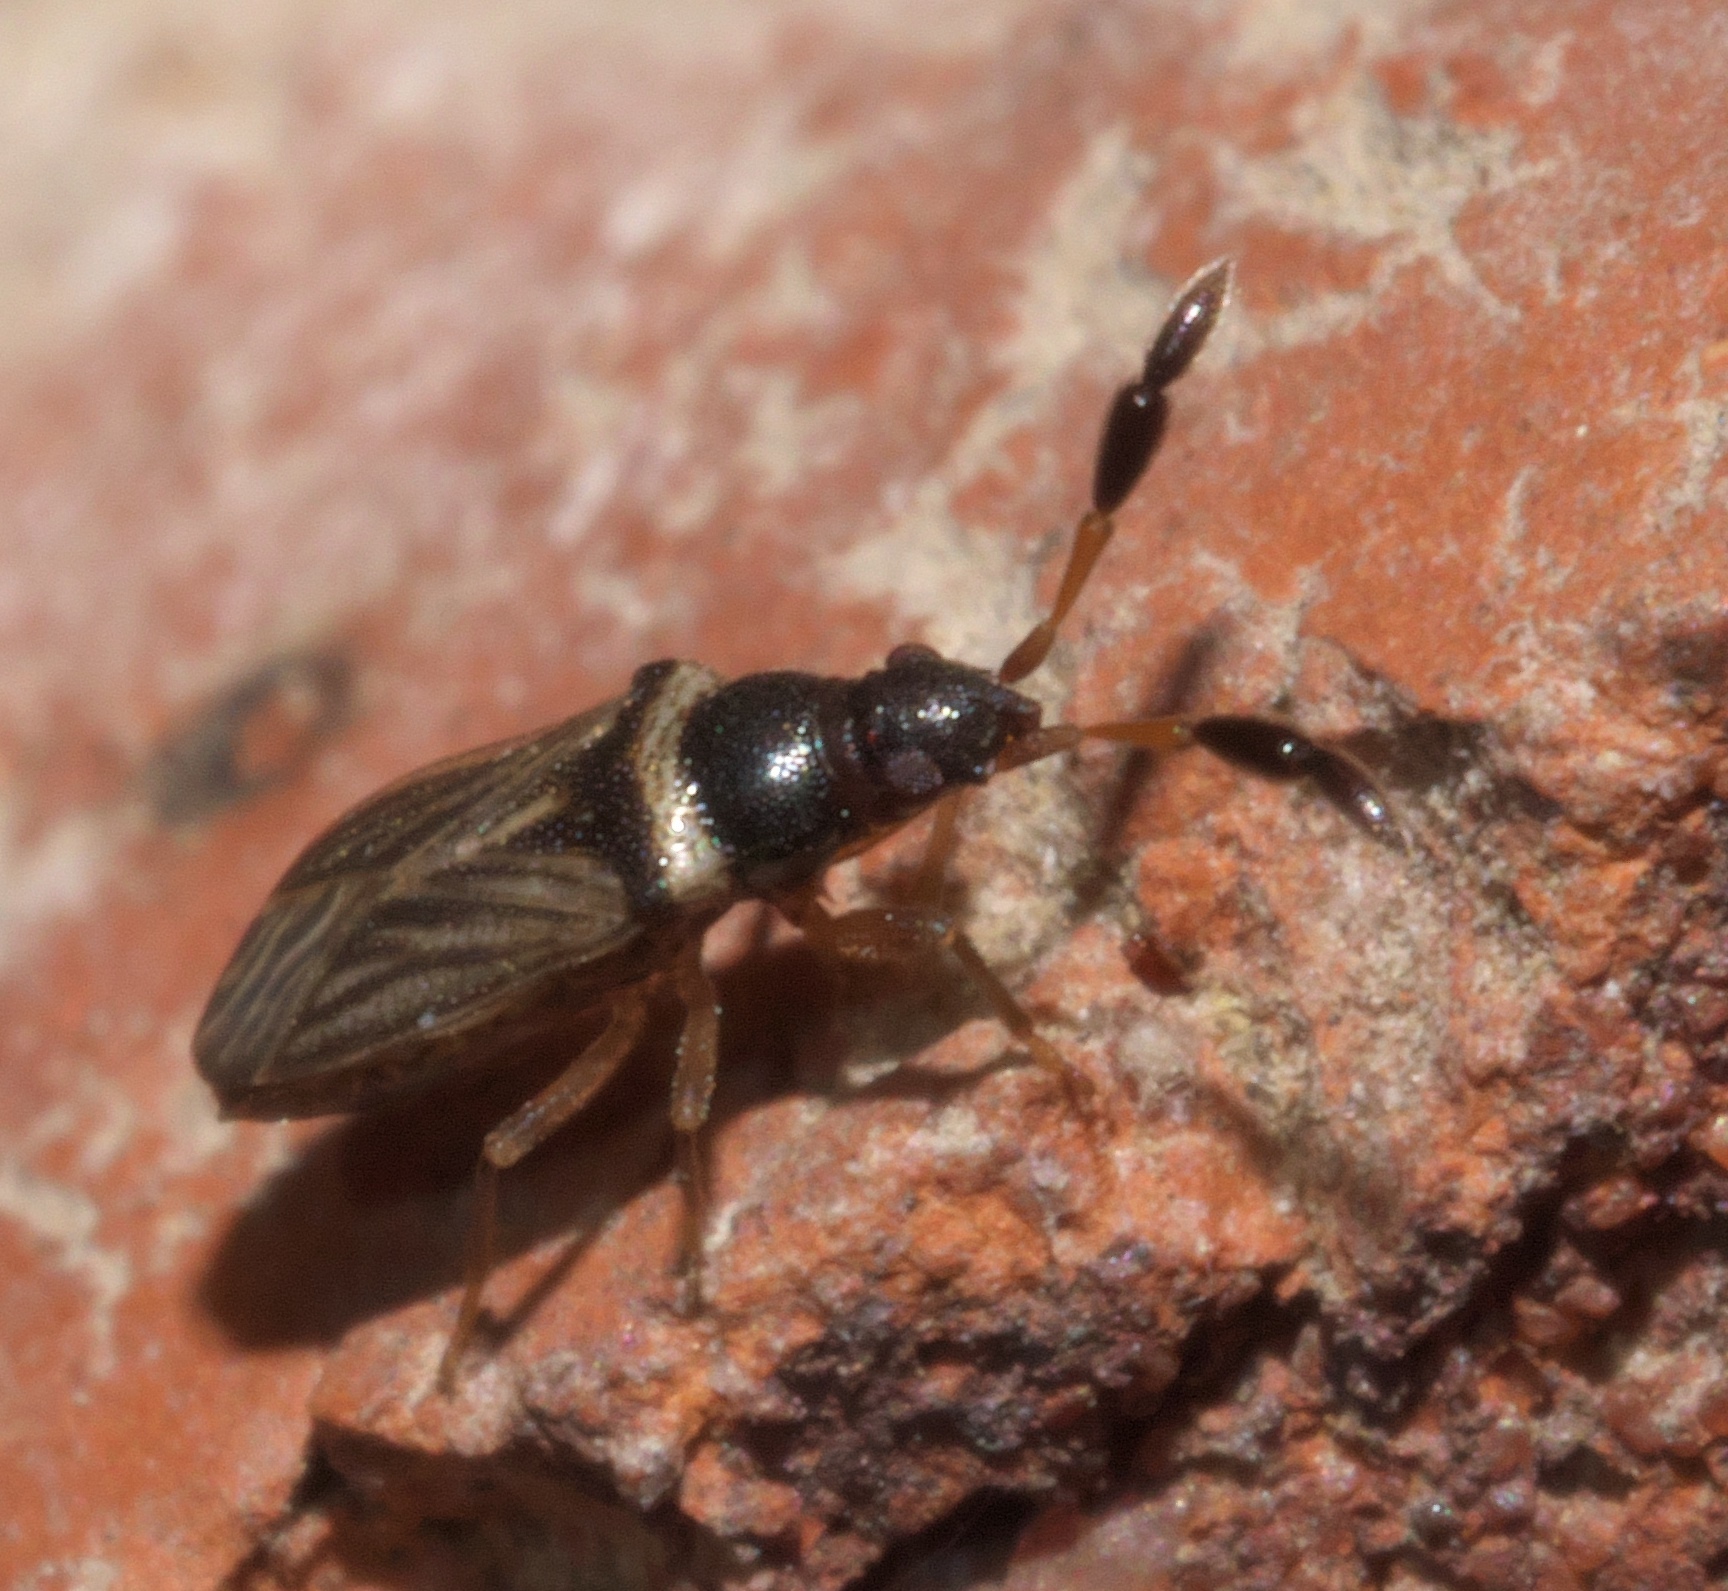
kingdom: Animalia
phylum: Arthropoda
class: Insecta
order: Hemiptera
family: Rhyparochromidae
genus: Ptochiomera
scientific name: Ptochiomera nodosa
